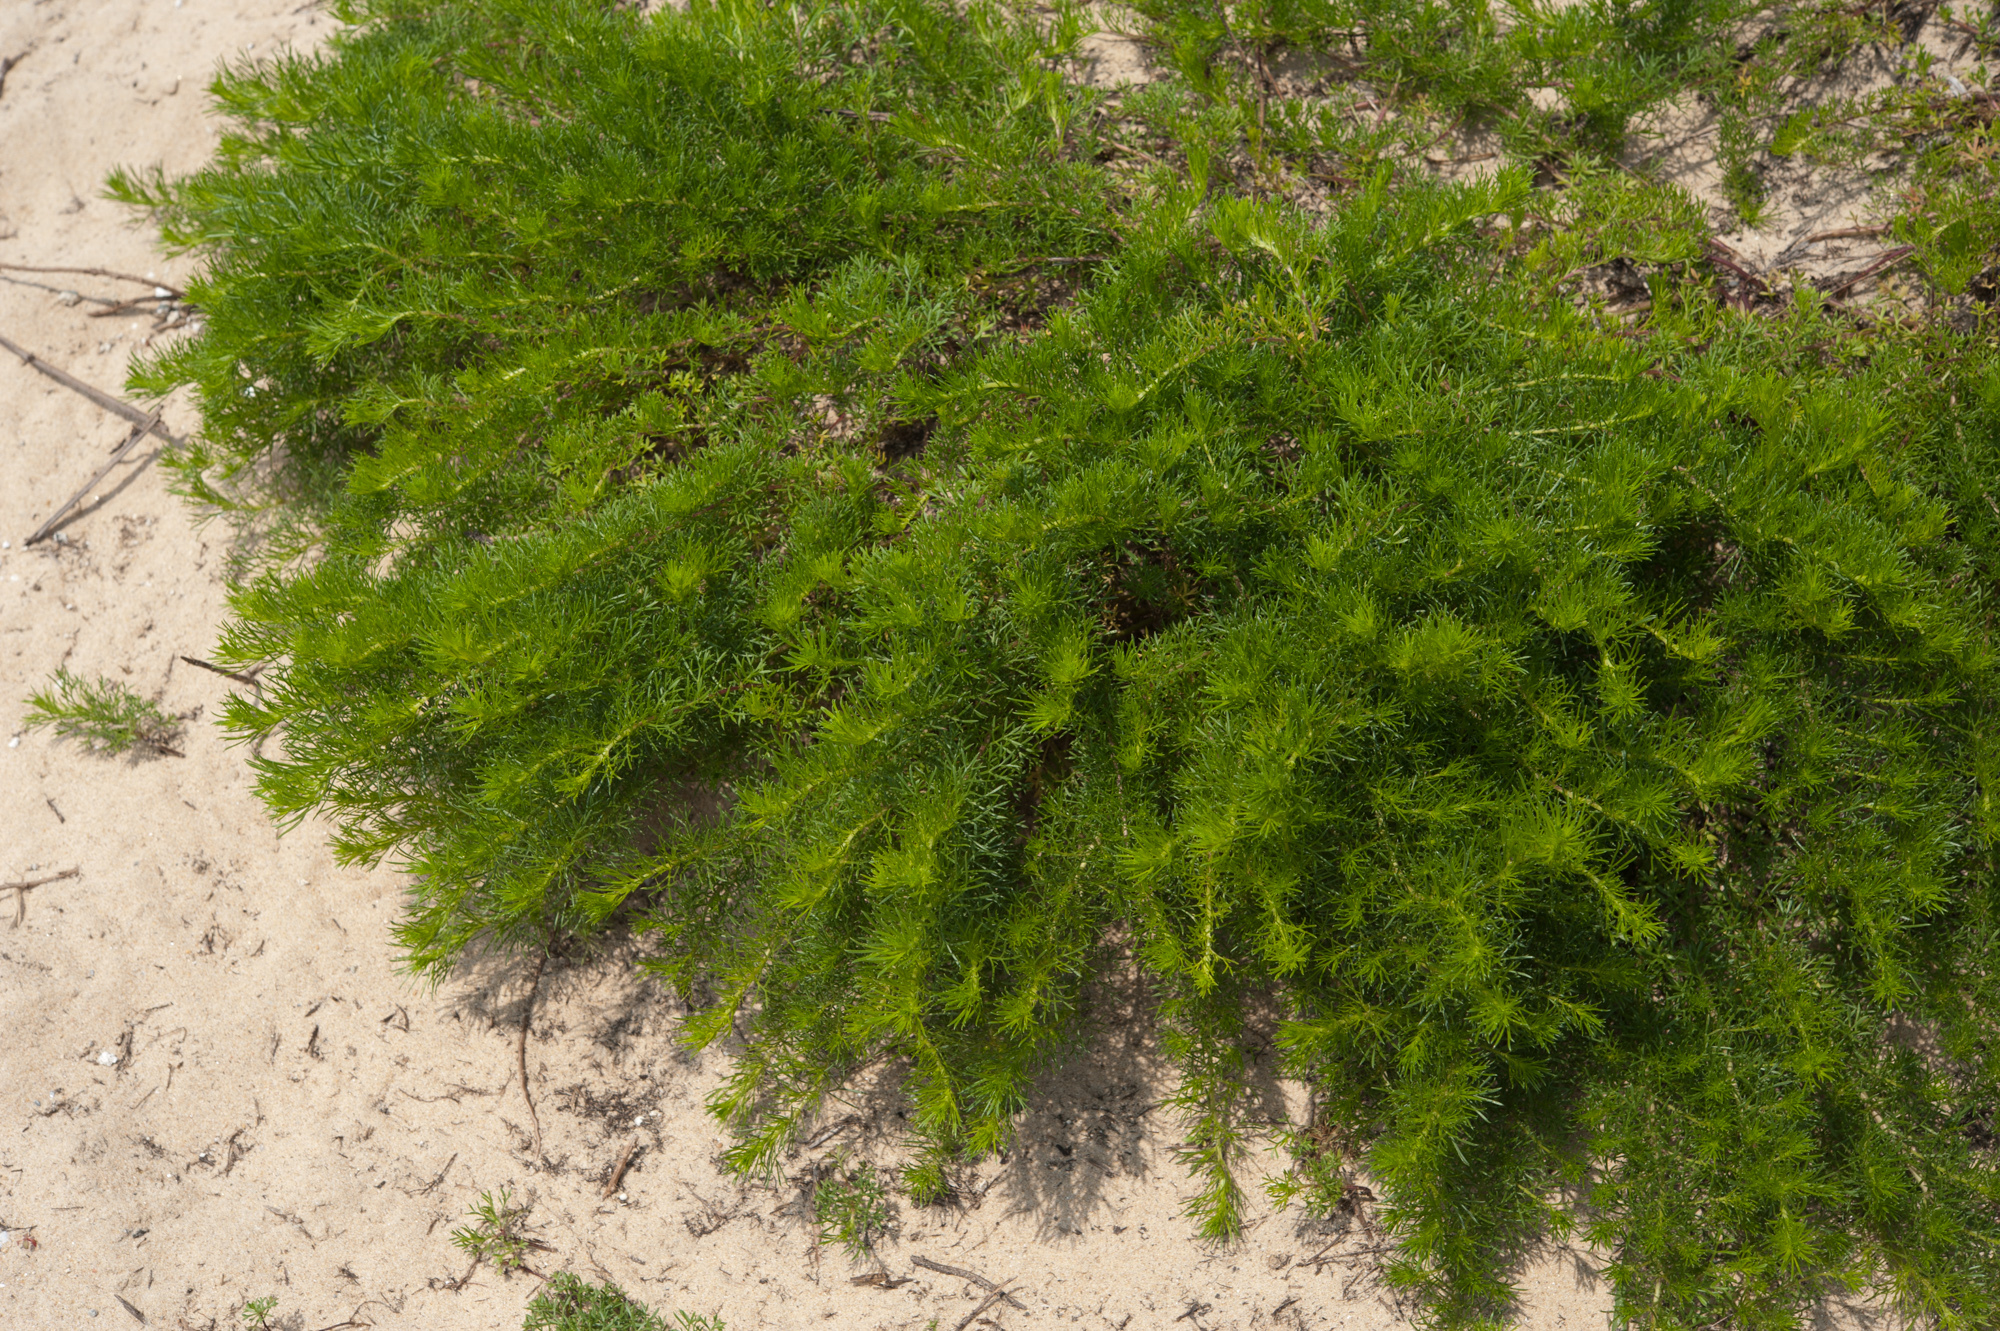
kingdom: Plantae
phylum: Tracheophyta
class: Magnoliopsida
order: Asterales
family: Asteraceae
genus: Artemisia
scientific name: Artemisia capillaris
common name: Yin-chen wormwood
